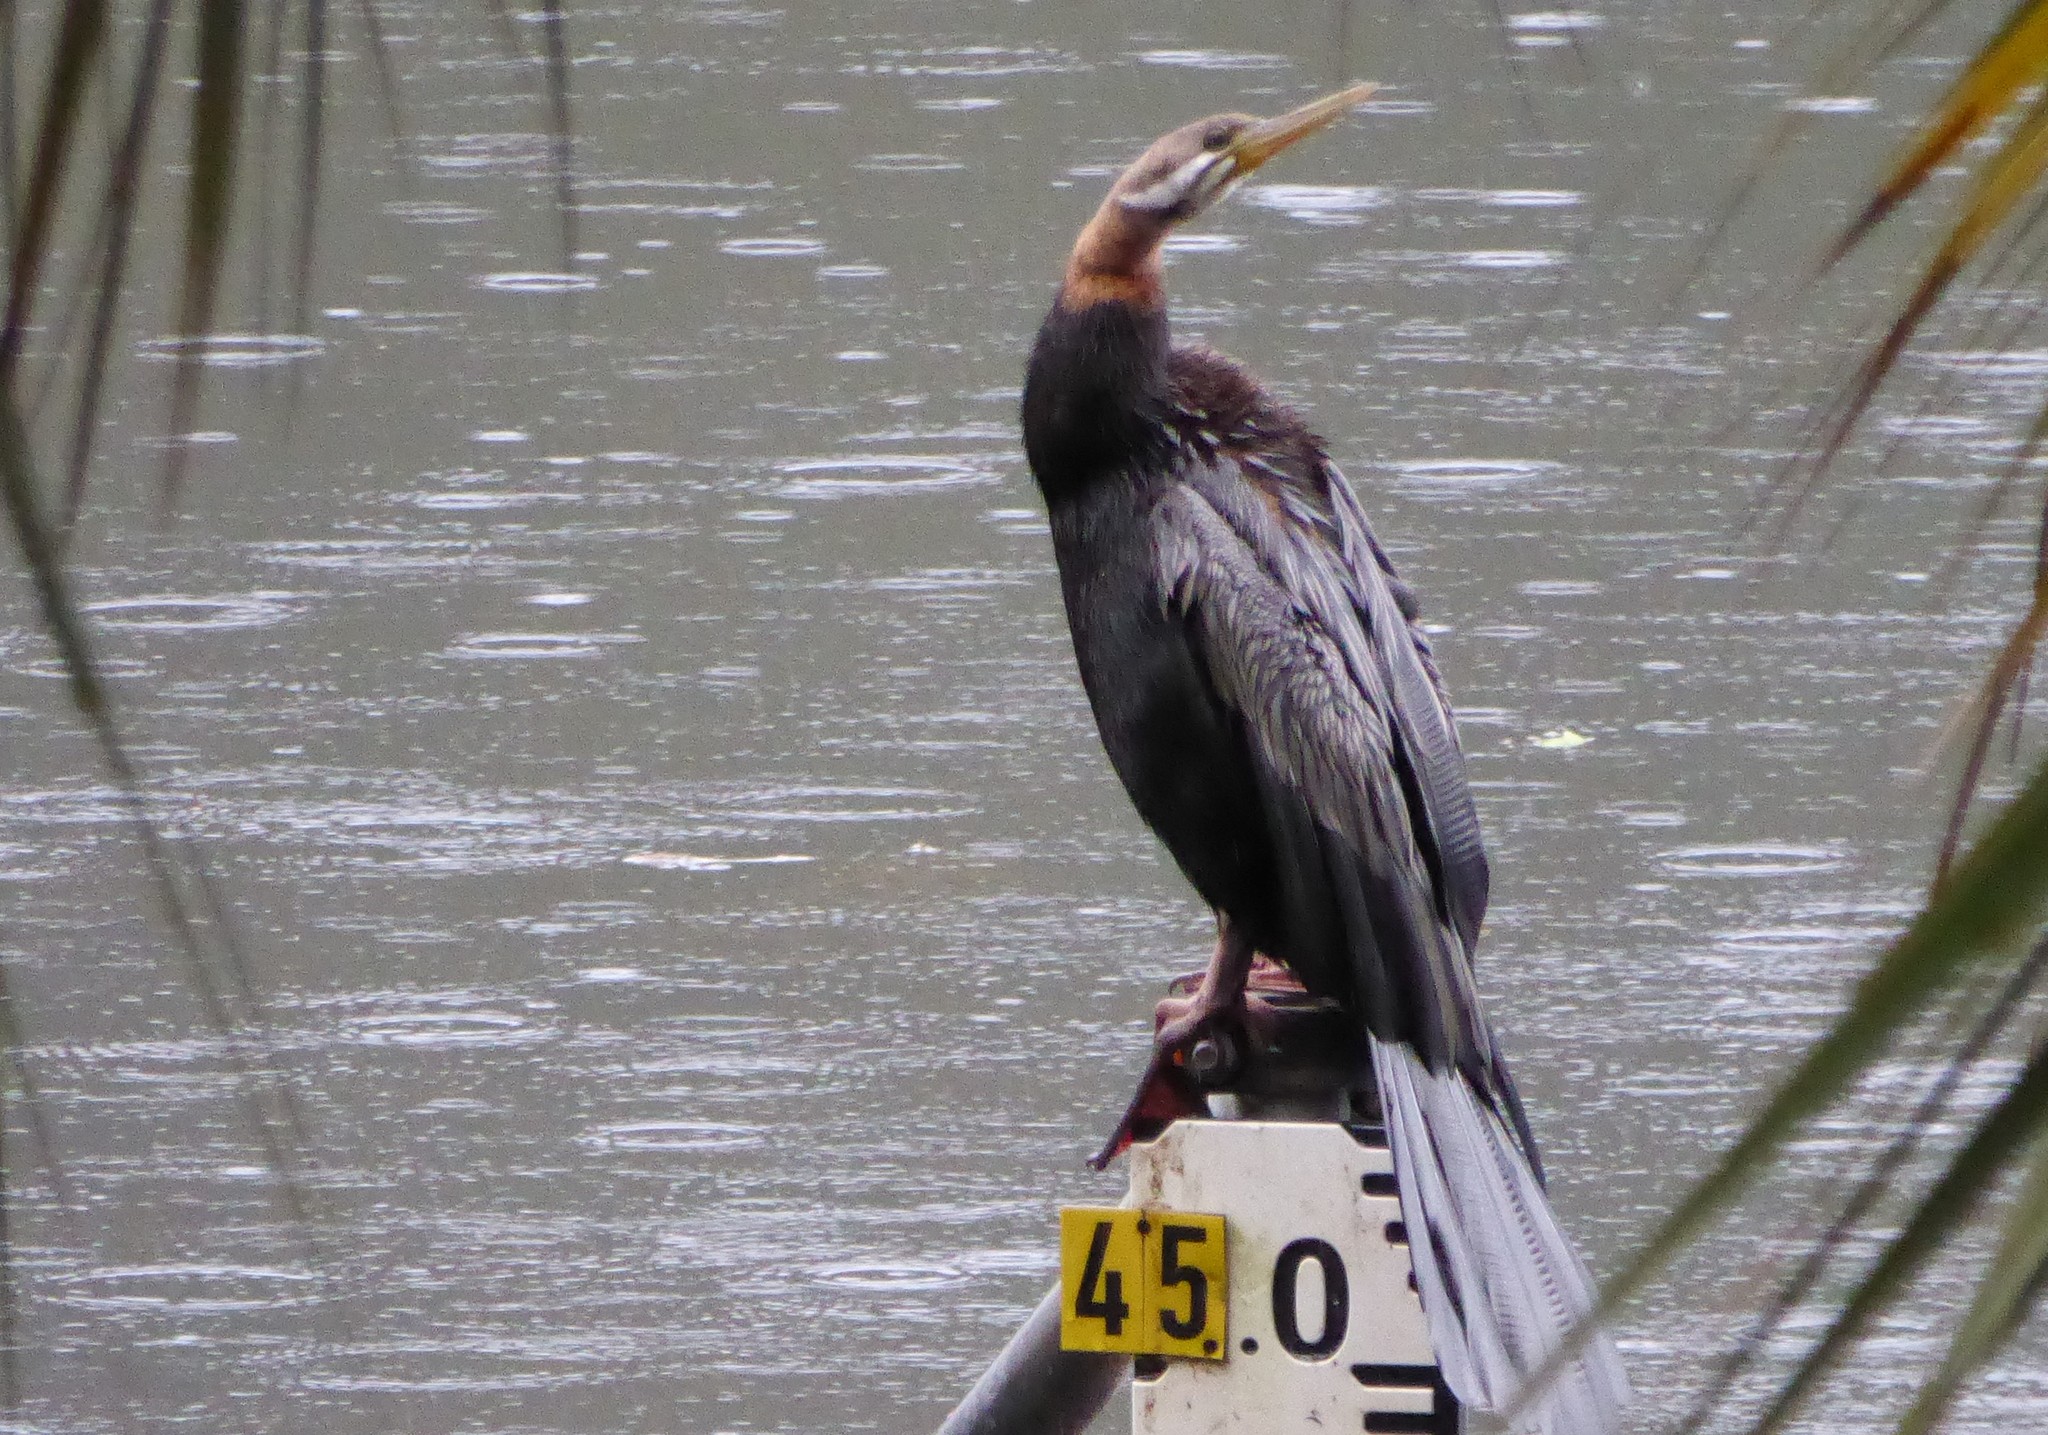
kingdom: Animalia
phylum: Chordata
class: Aves
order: Suliformes
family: Anhingidae
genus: Anhinga
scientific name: Anhinga novaehollandiae
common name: Australasian darter
